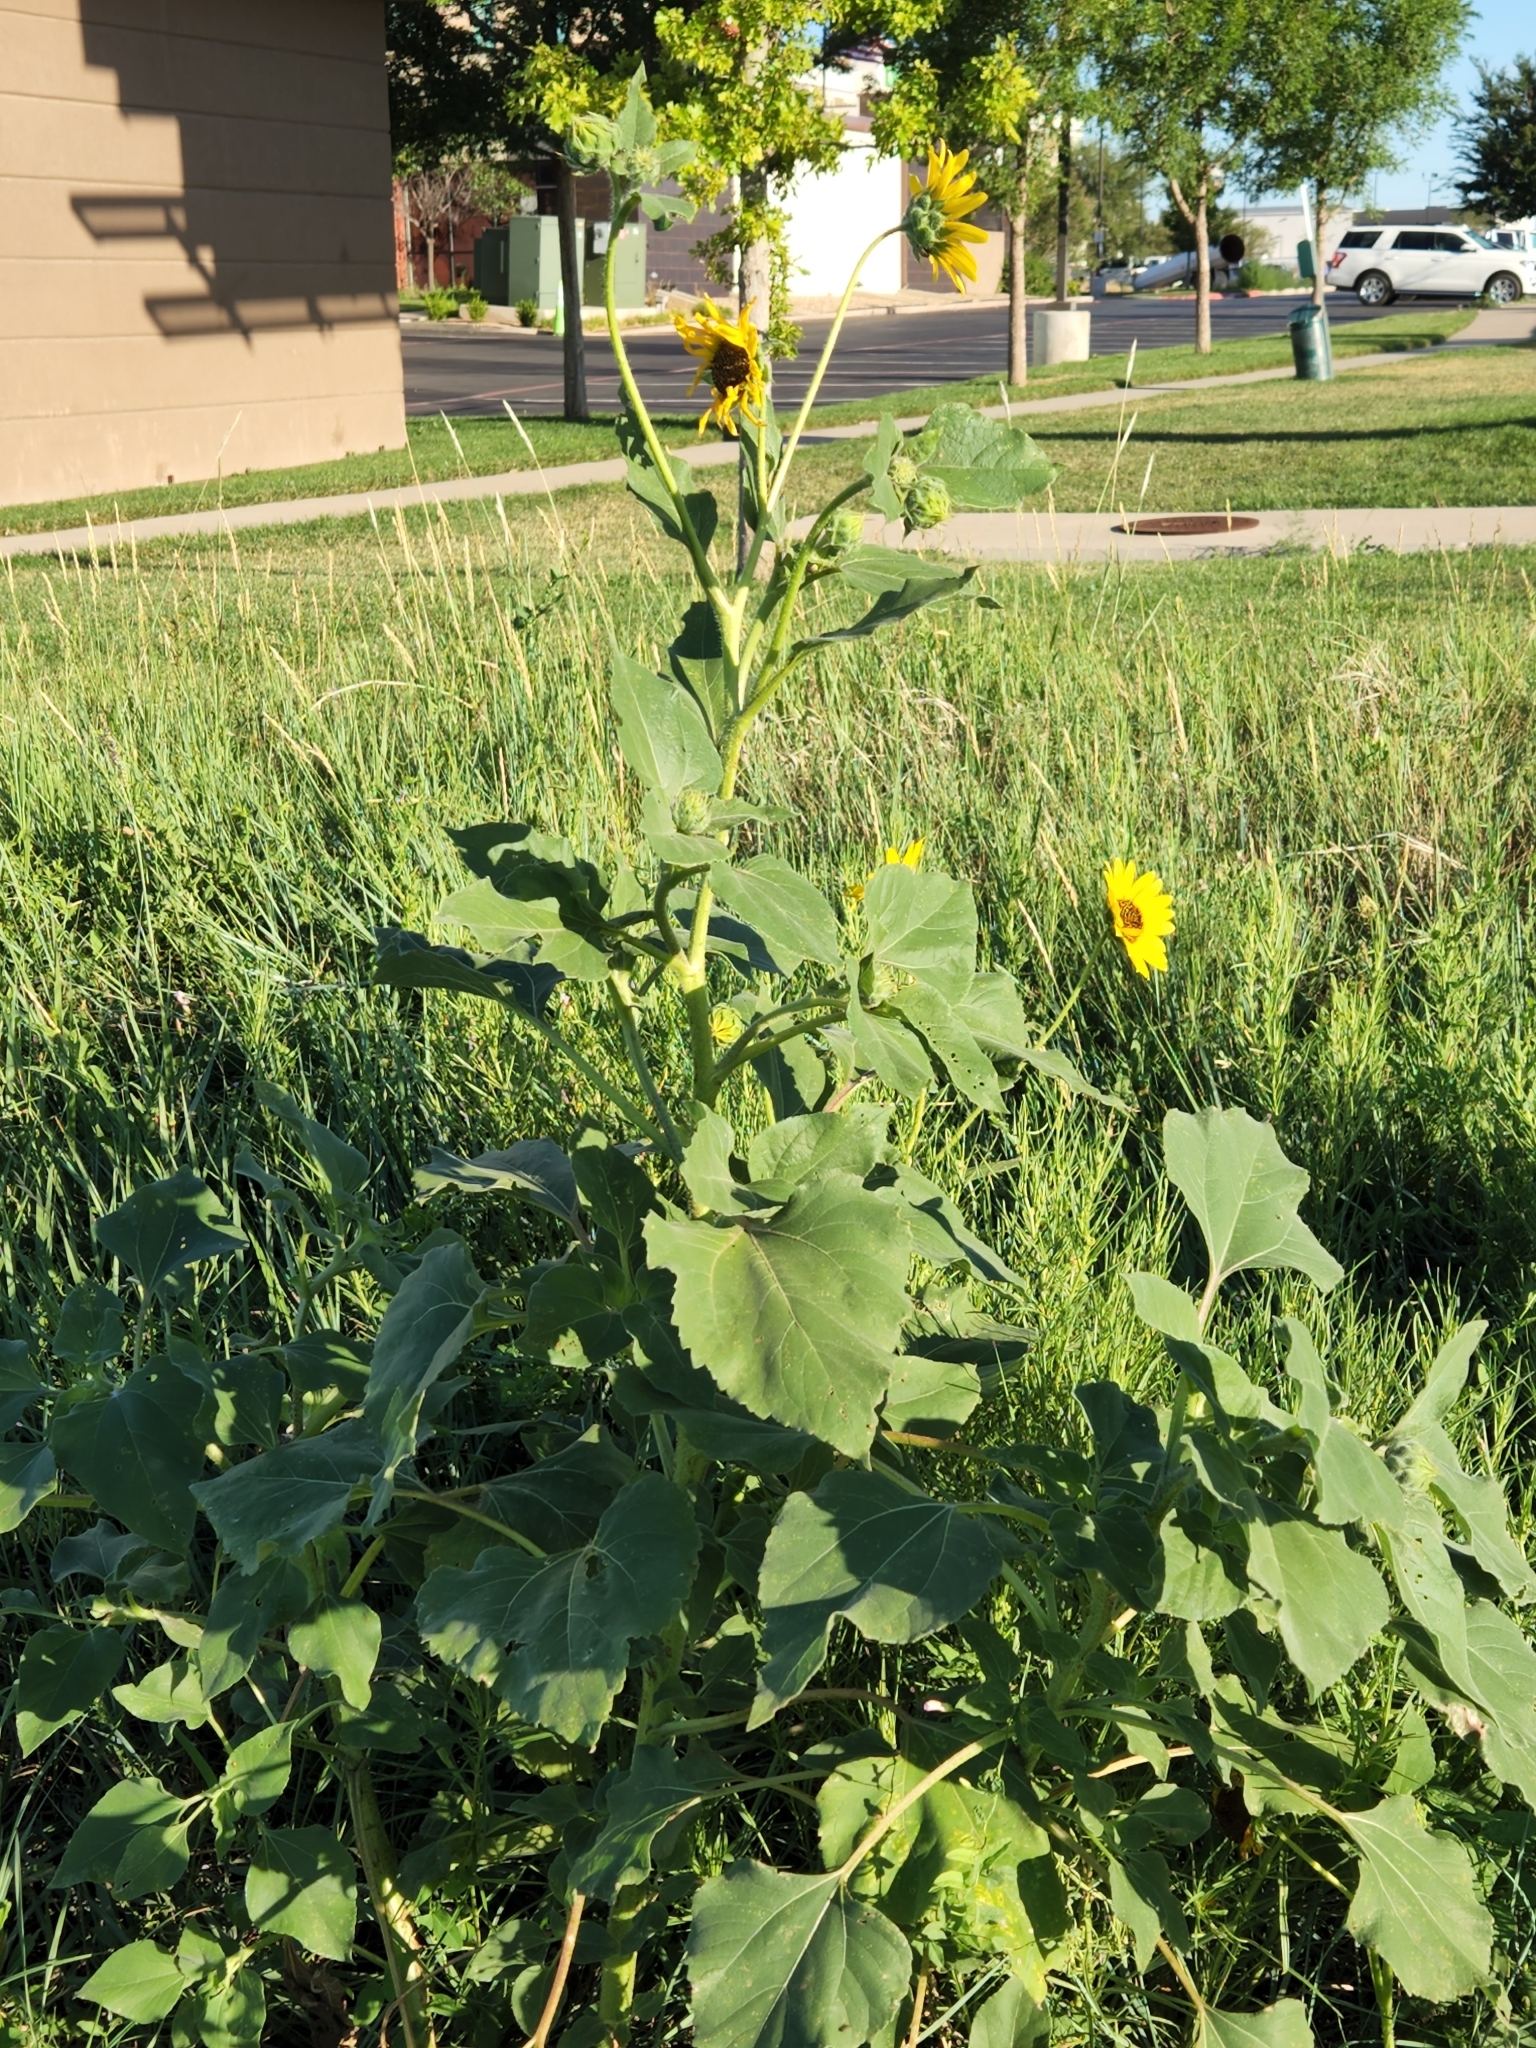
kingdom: Plantae
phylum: Tracheophyta
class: Magnoliopsida
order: Asterales
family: Asteraceae
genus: Helianthus
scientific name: Helianthus annuus
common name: Sunflower
